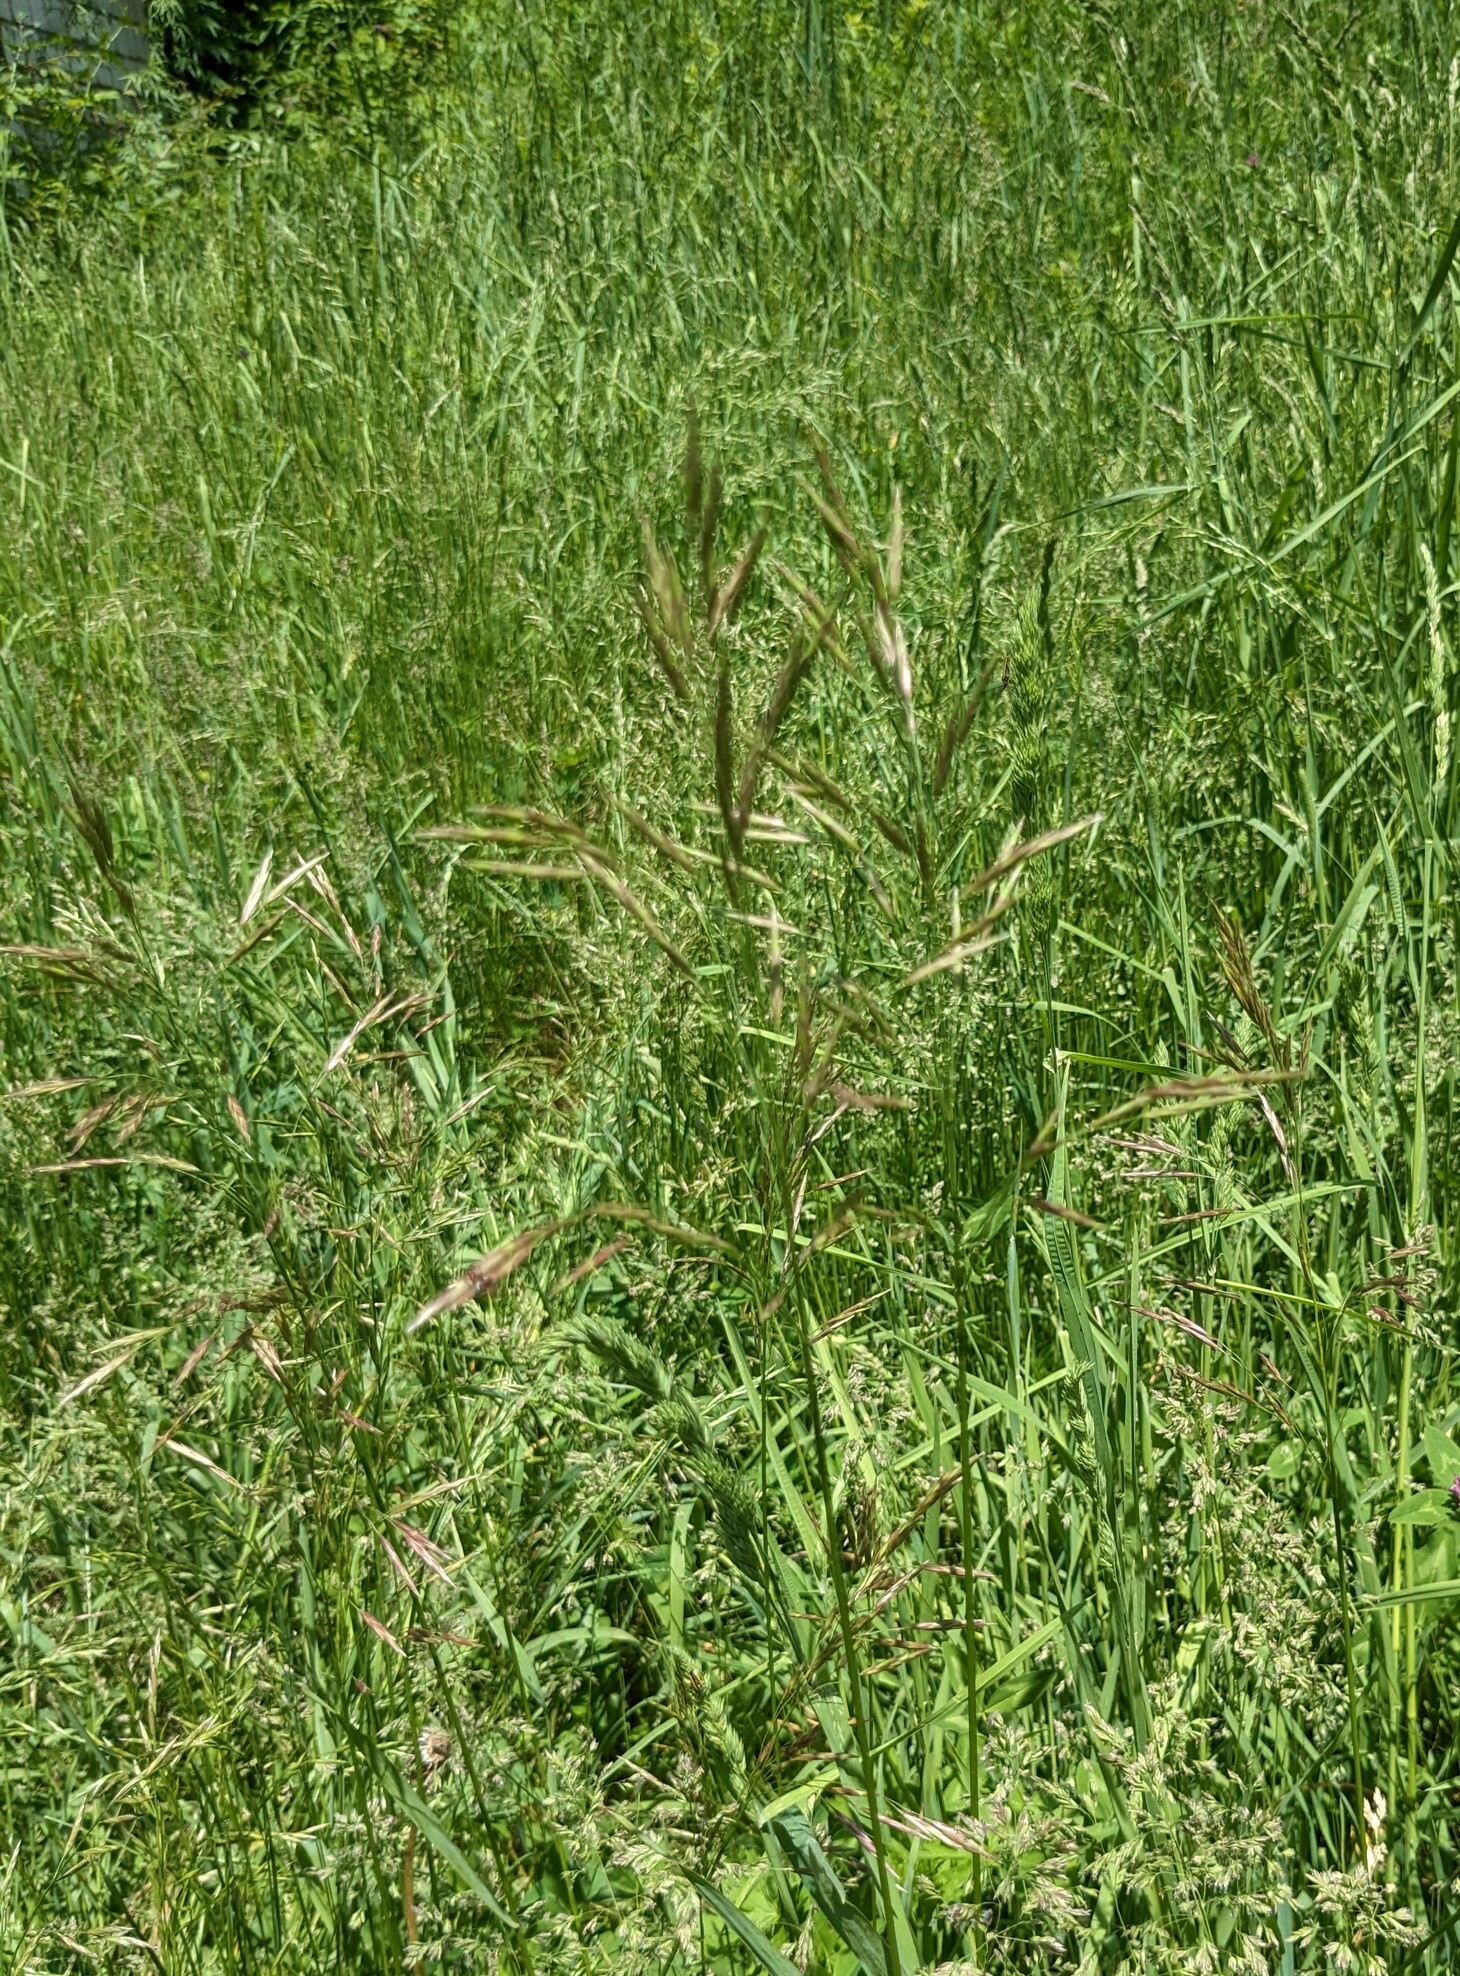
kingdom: Plantae
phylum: Tracheophyta
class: Liliopsida
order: Poales
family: Poaceae
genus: Bromus
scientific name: Bromus inermis
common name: Smooth brome
